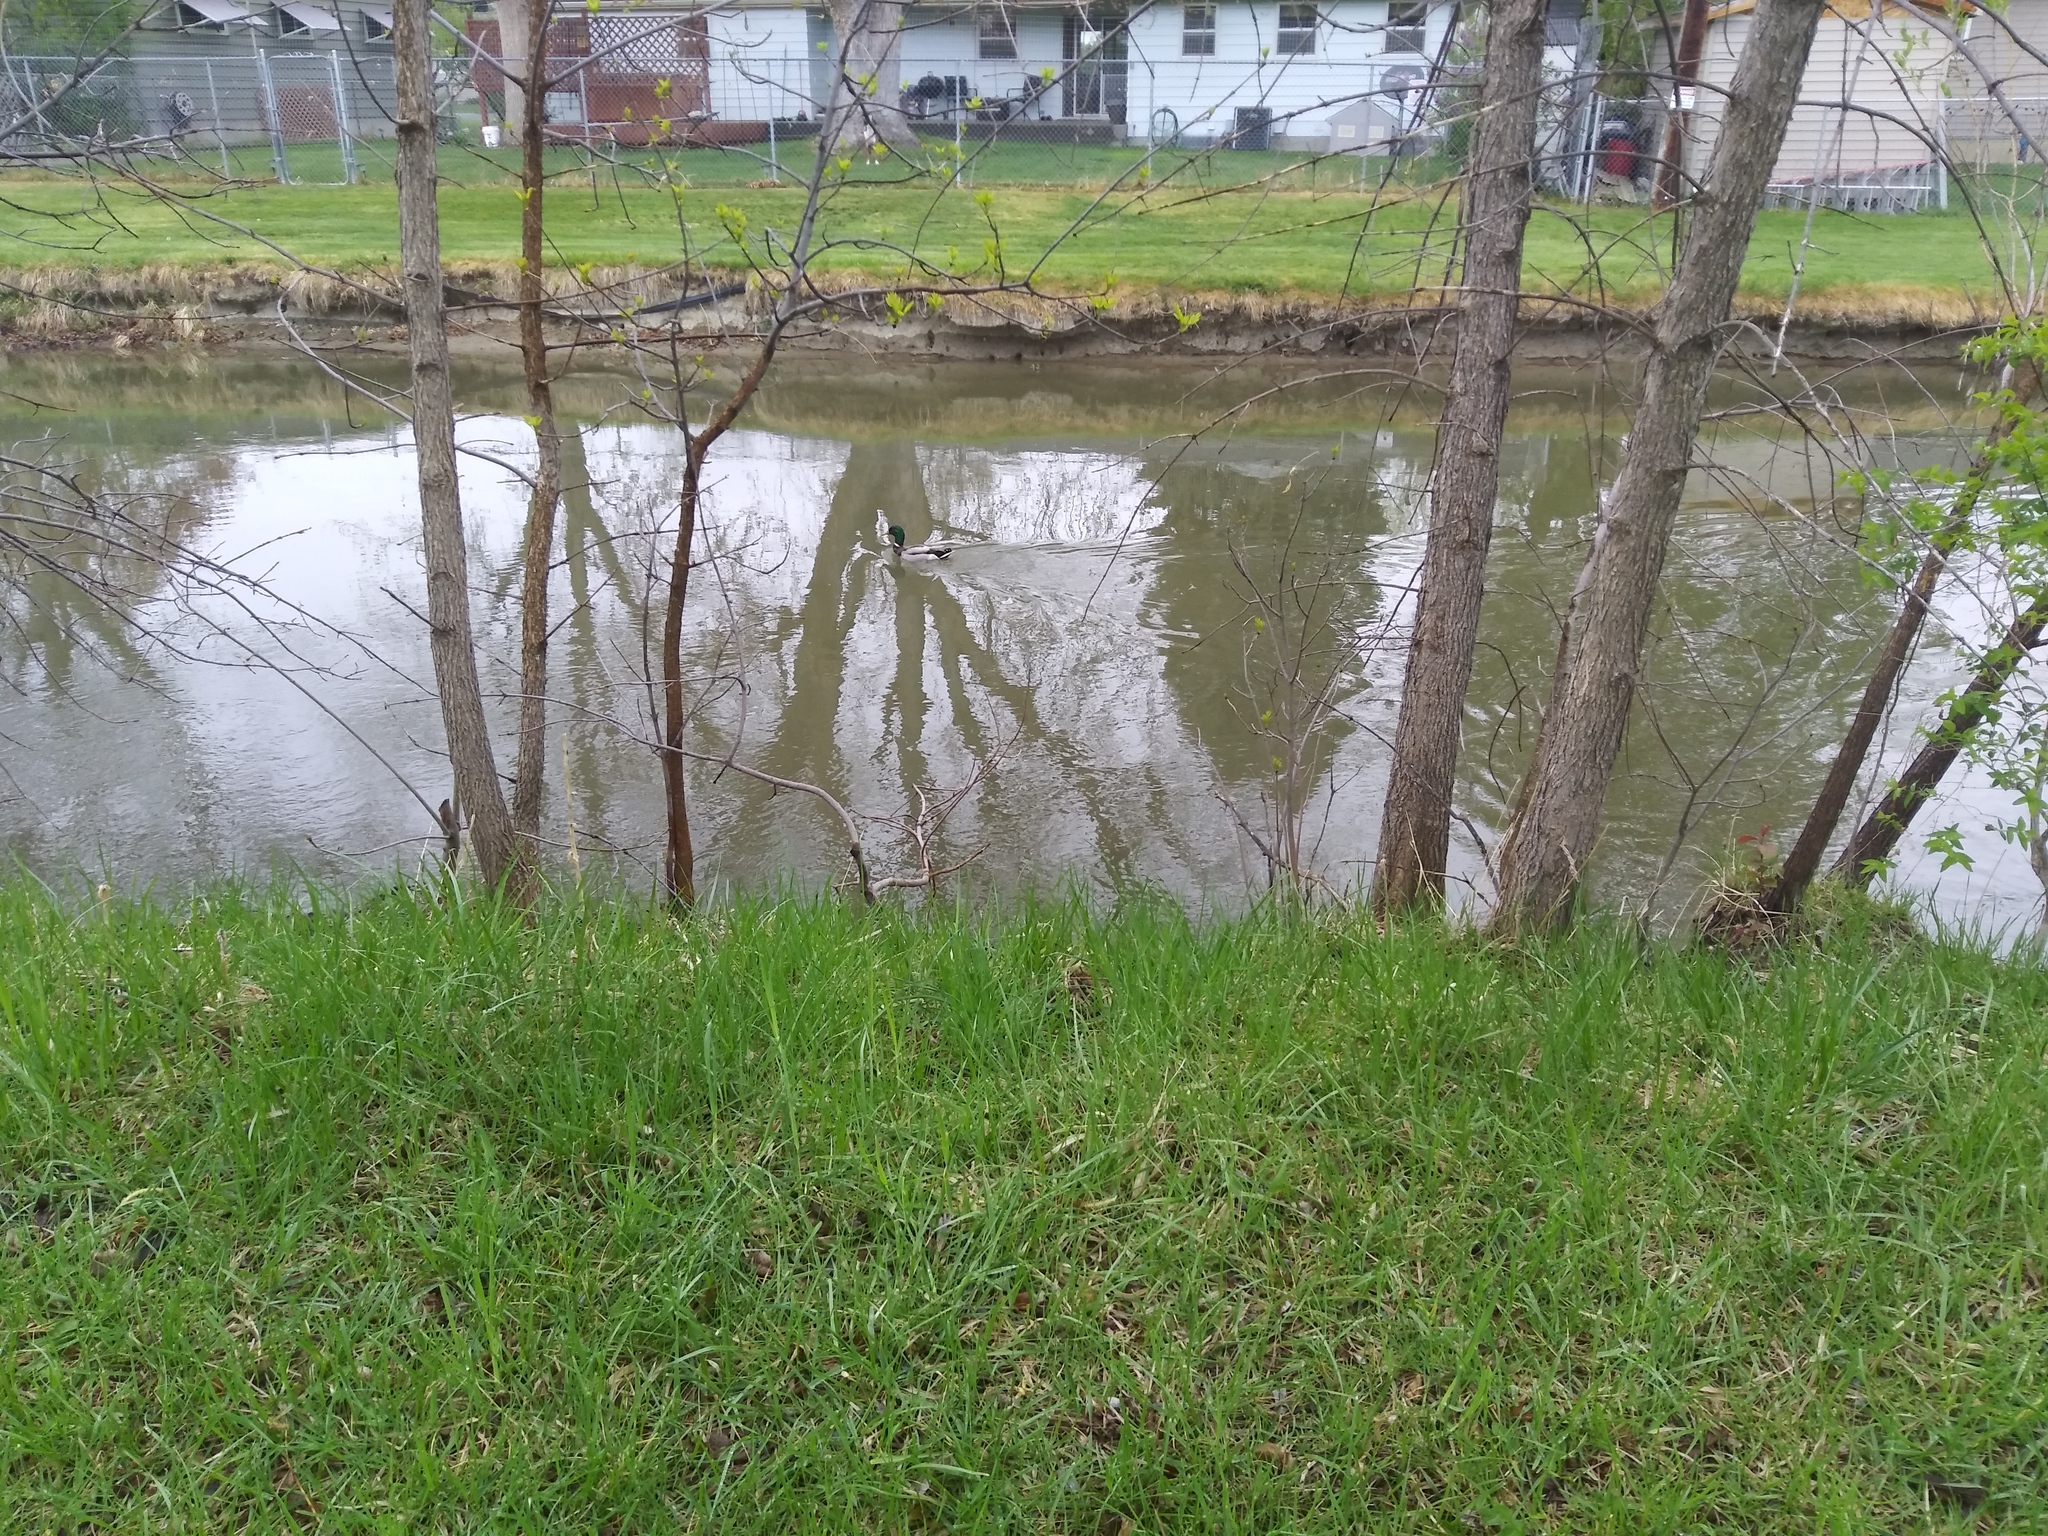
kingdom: Animalia
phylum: Chordata
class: Aves
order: Anseriformes
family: Anatidae
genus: Anas
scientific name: Anas platyrhynchos
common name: Mallard
